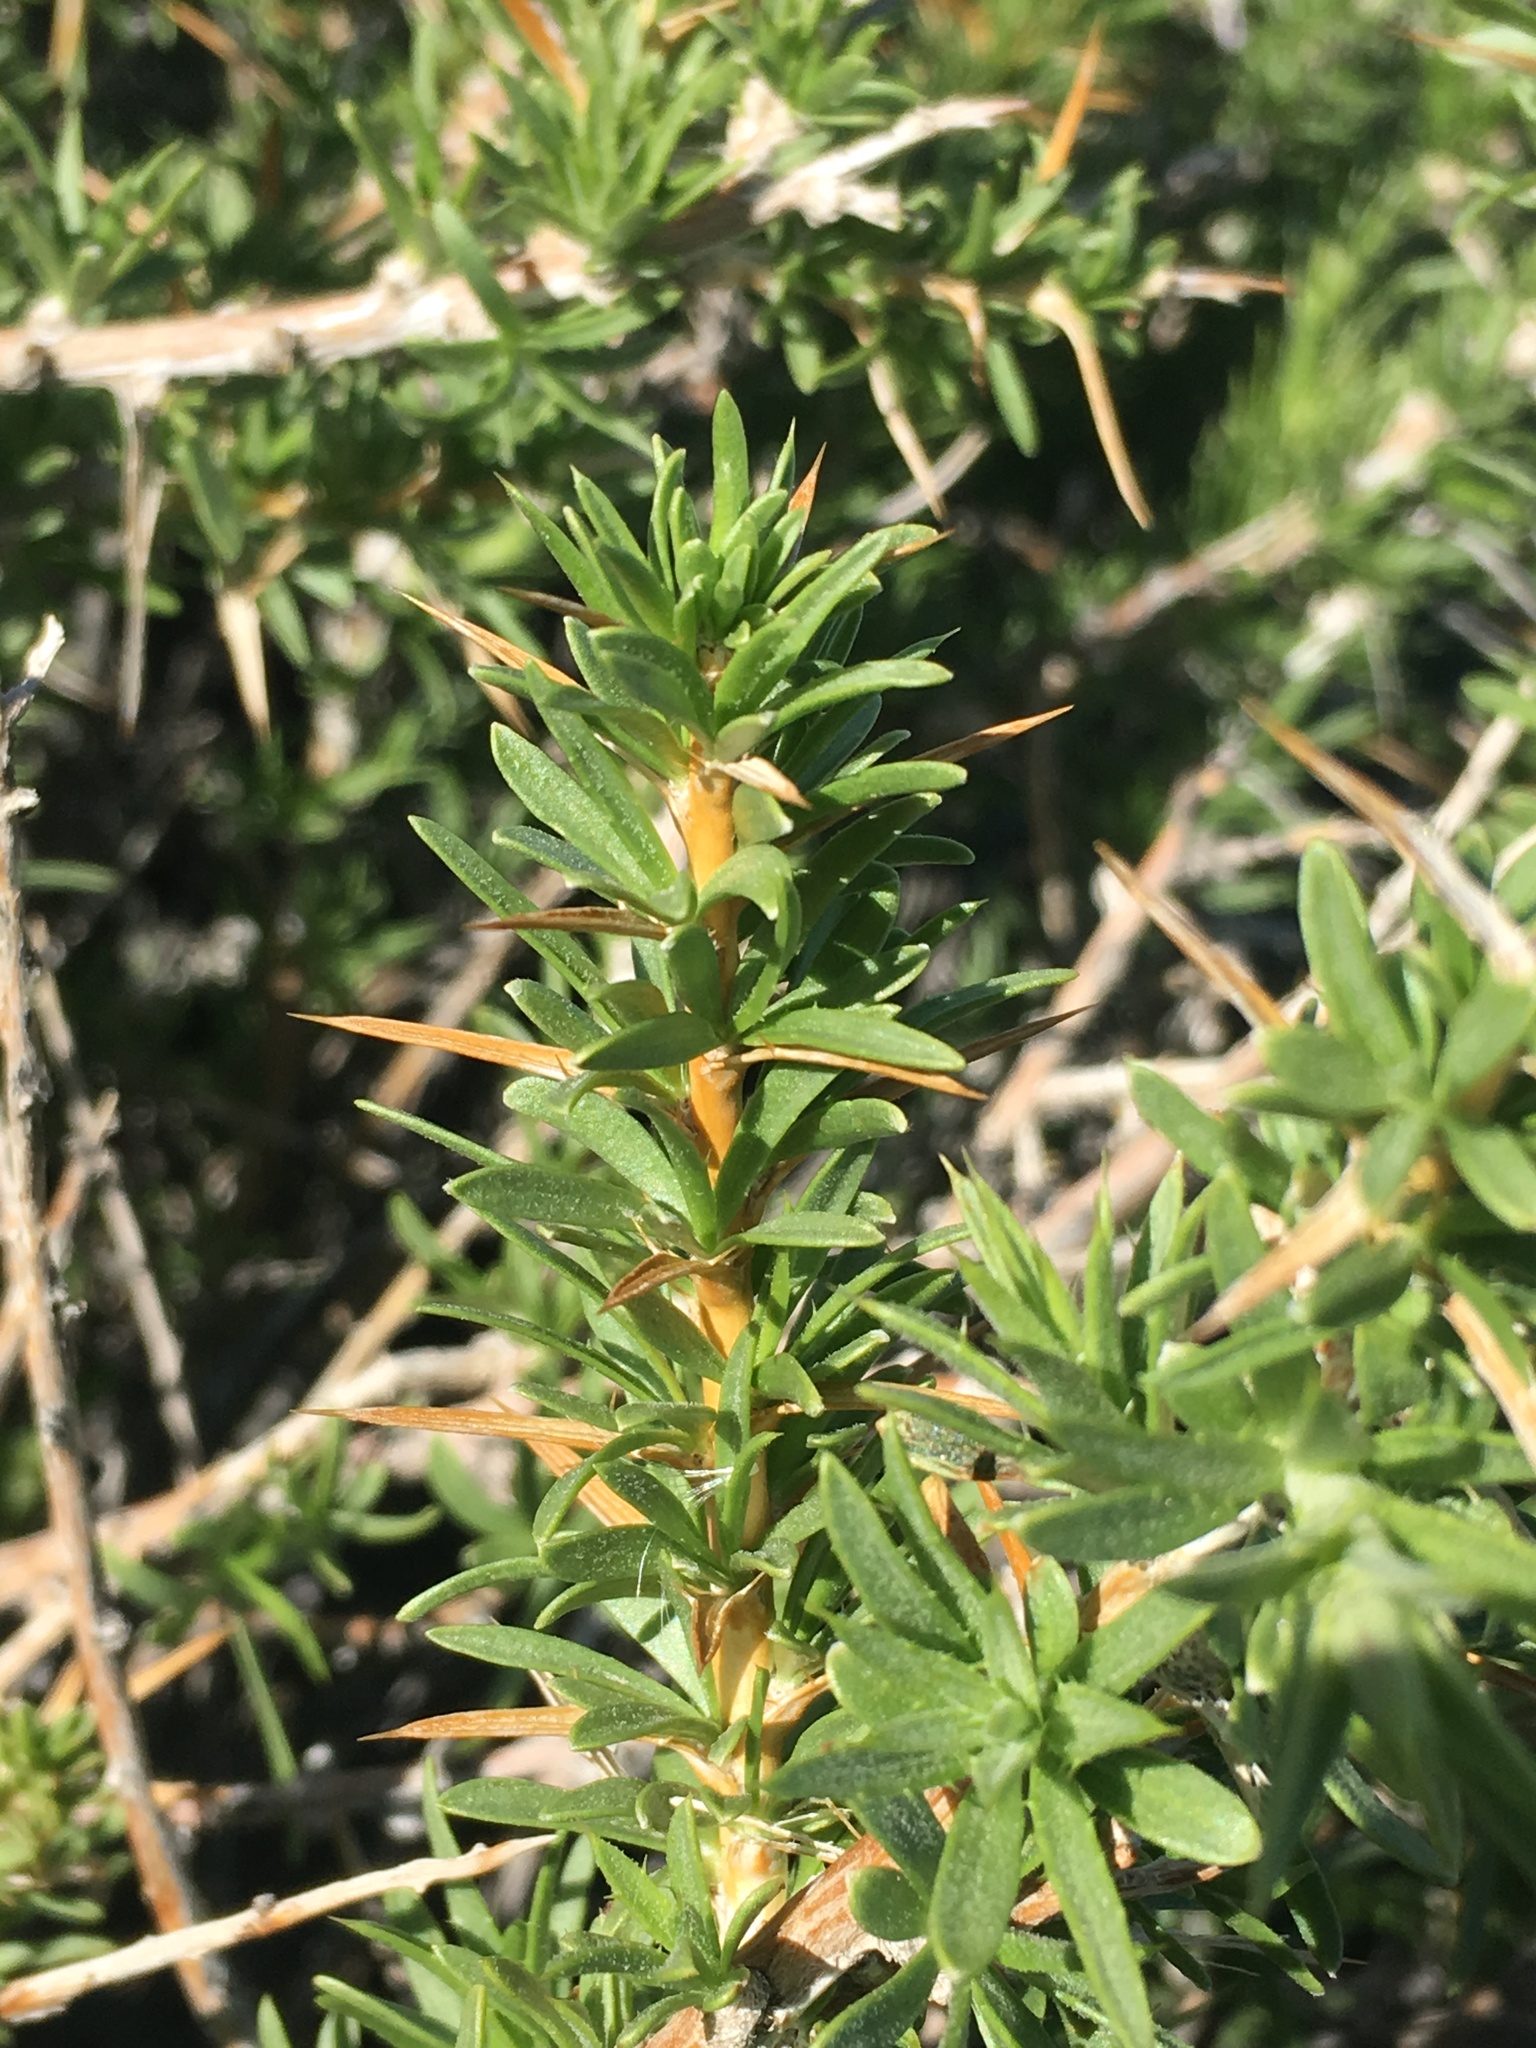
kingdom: Plantae
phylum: Tracheophyta
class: Magnoliopsida
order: Asterales
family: Asteraceae
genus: Hecastocleis
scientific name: Hecastocleis shockleyi
